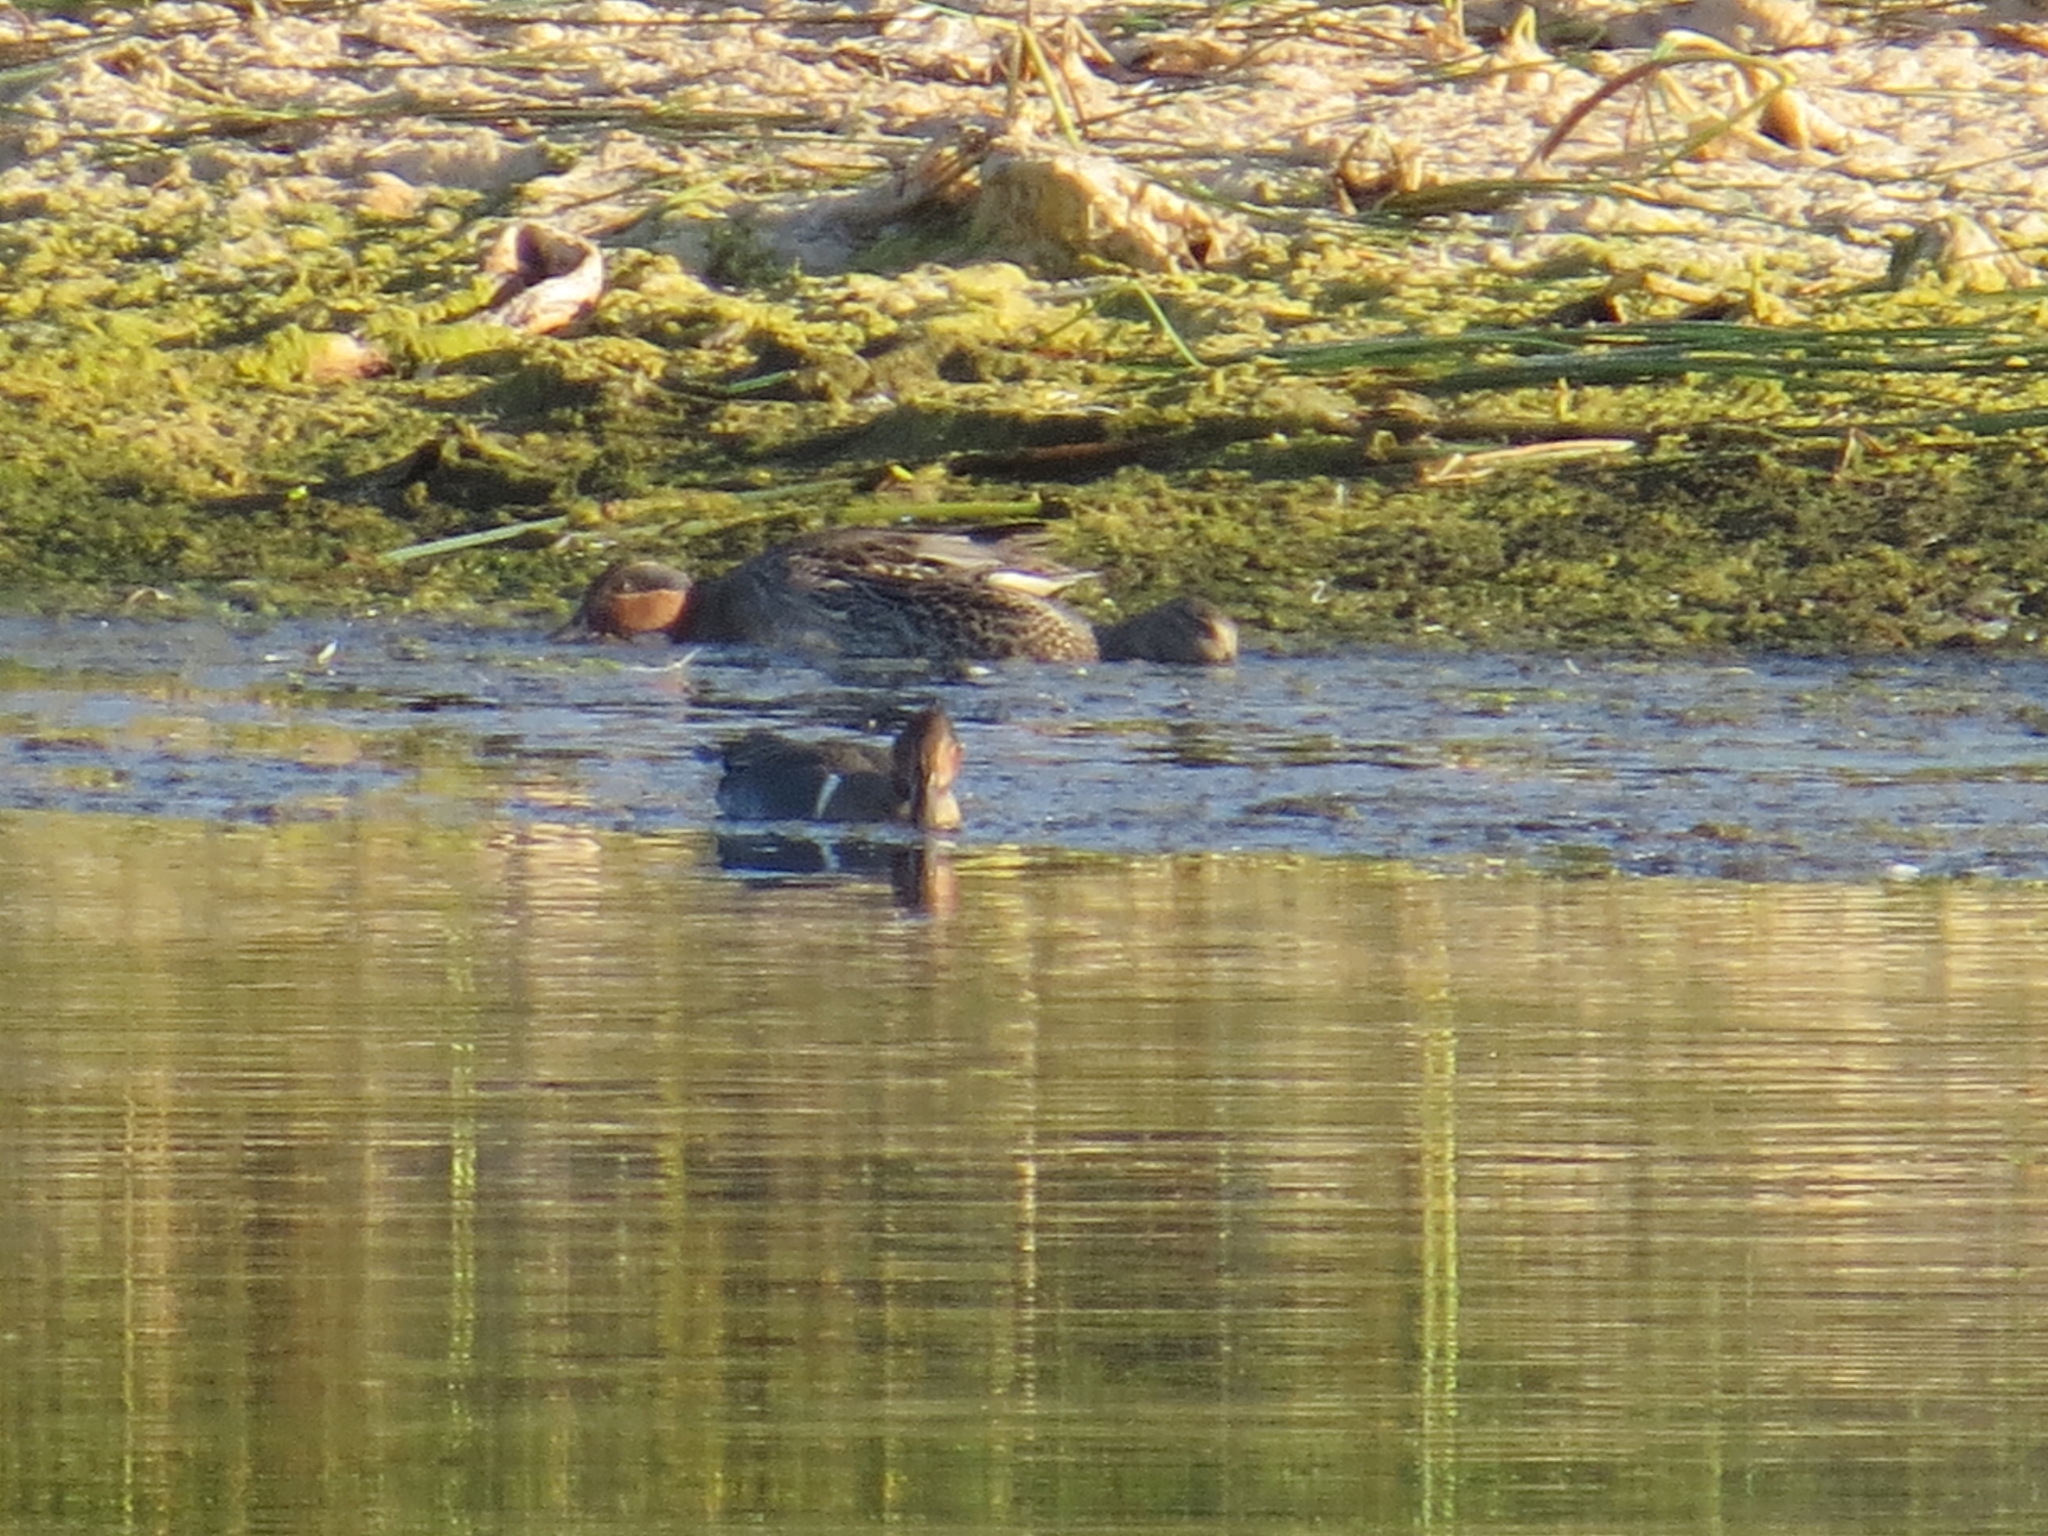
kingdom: Animalia
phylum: Chordata
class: Aves
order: Anseriformes
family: Anatidae
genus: Anas
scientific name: Anas crecca
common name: Eurasian teal
